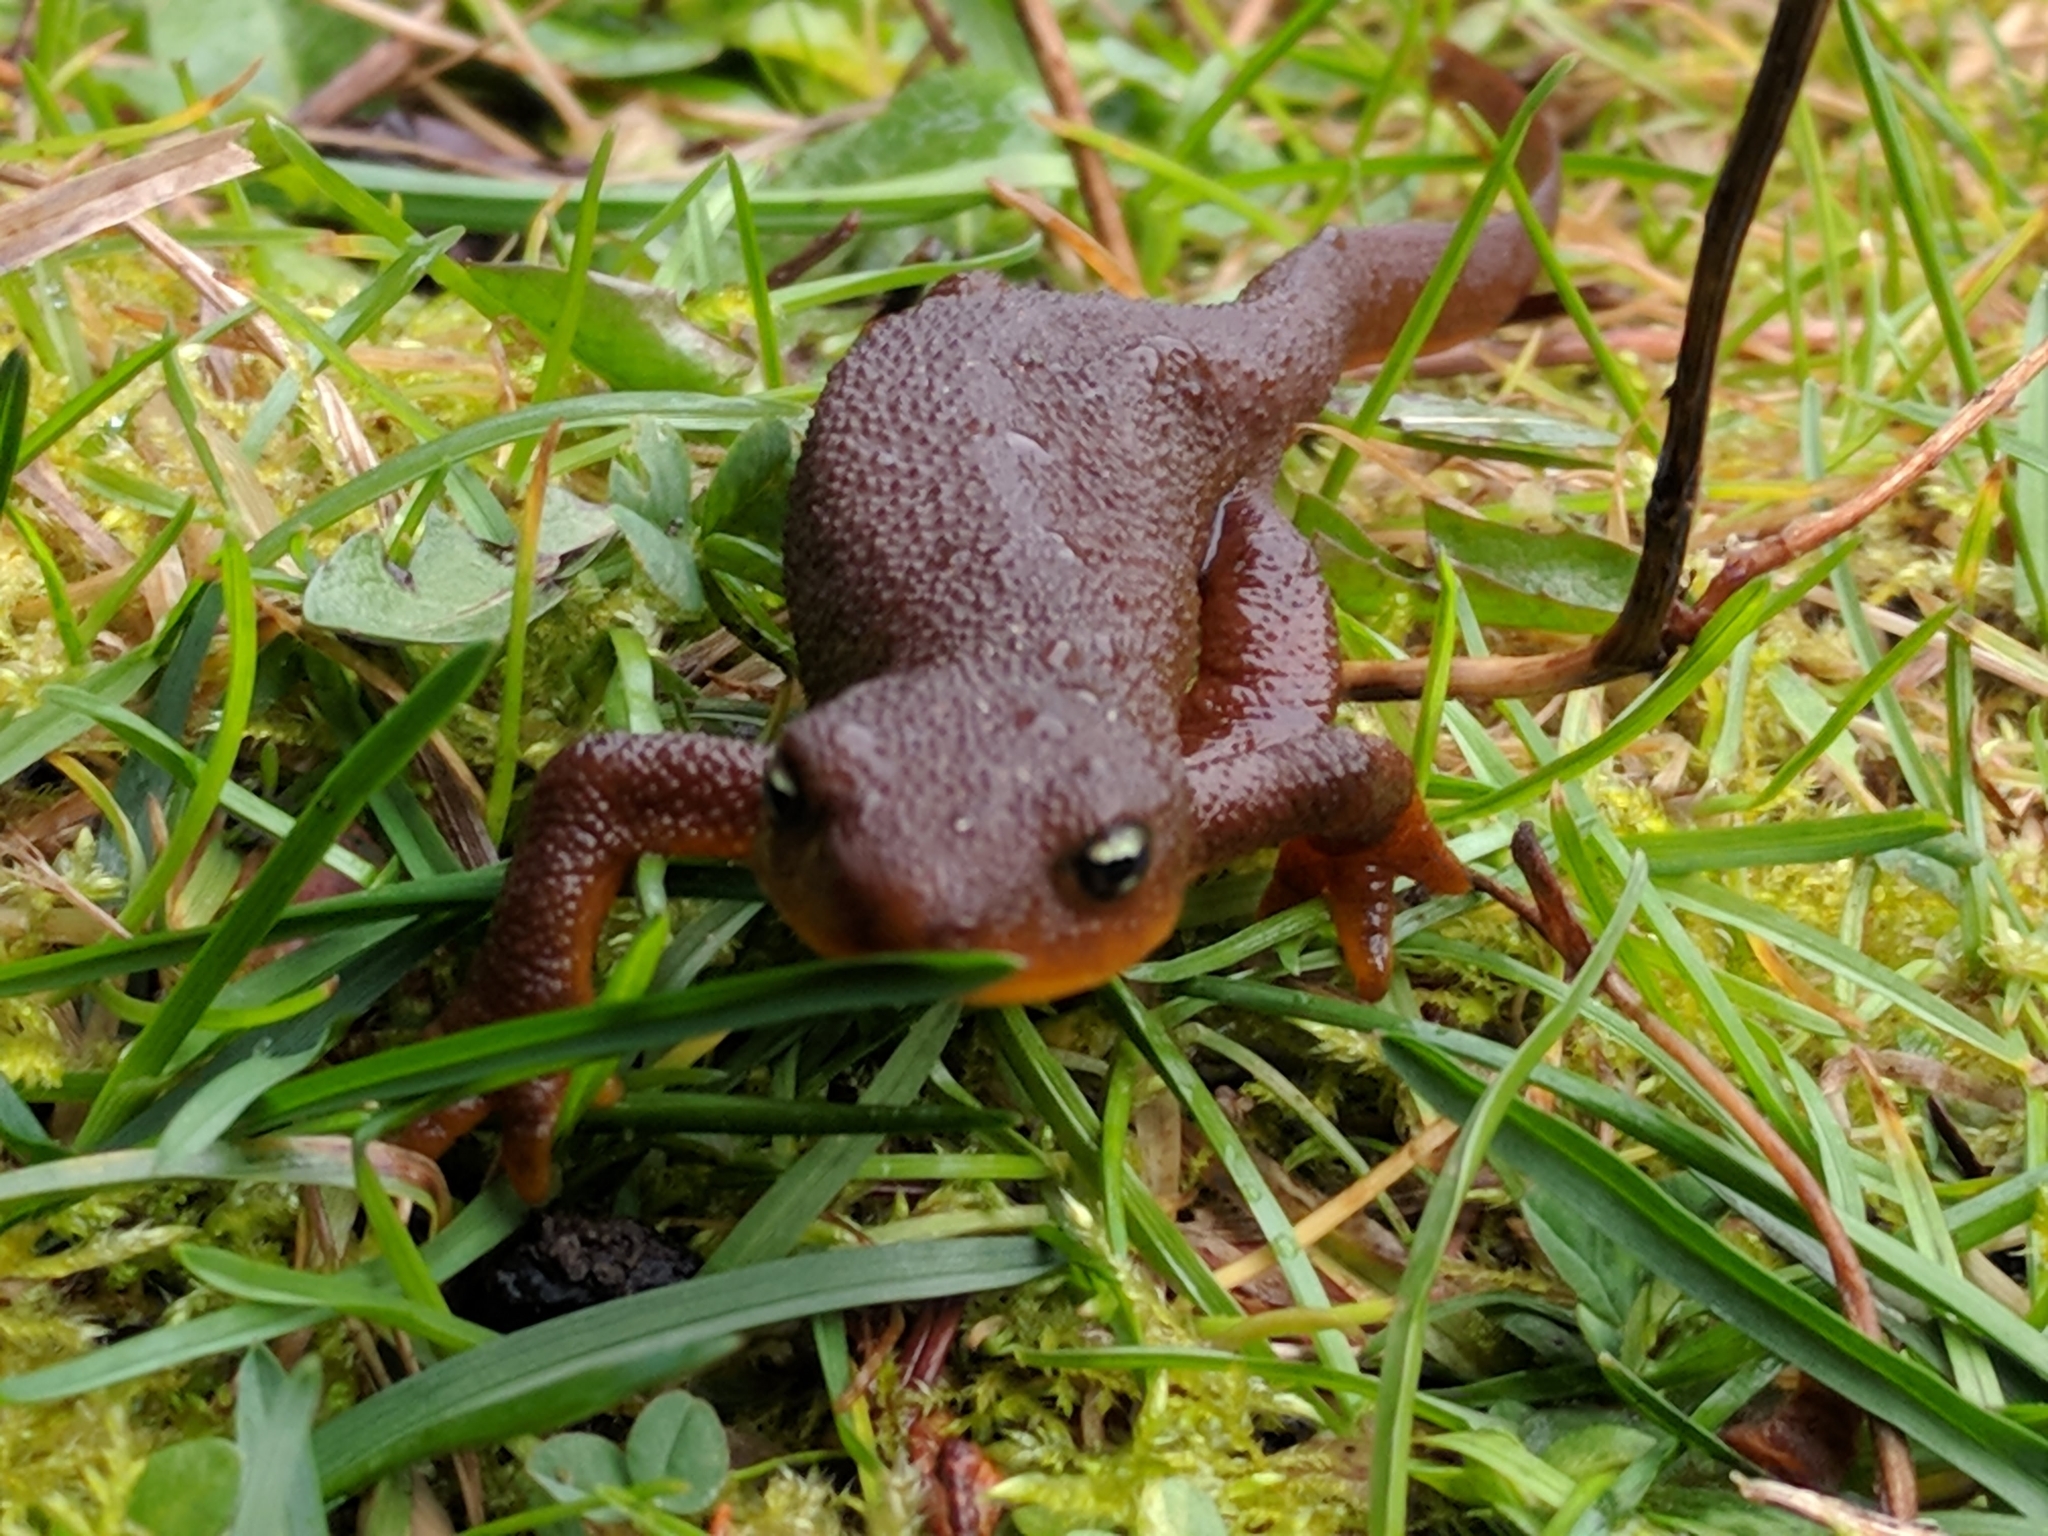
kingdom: Animalia
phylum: Chordata
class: Amphibia
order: Caudata
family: Salamandridae
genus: Taricha
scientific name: Taricha granulosa
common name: Roughskin newt
